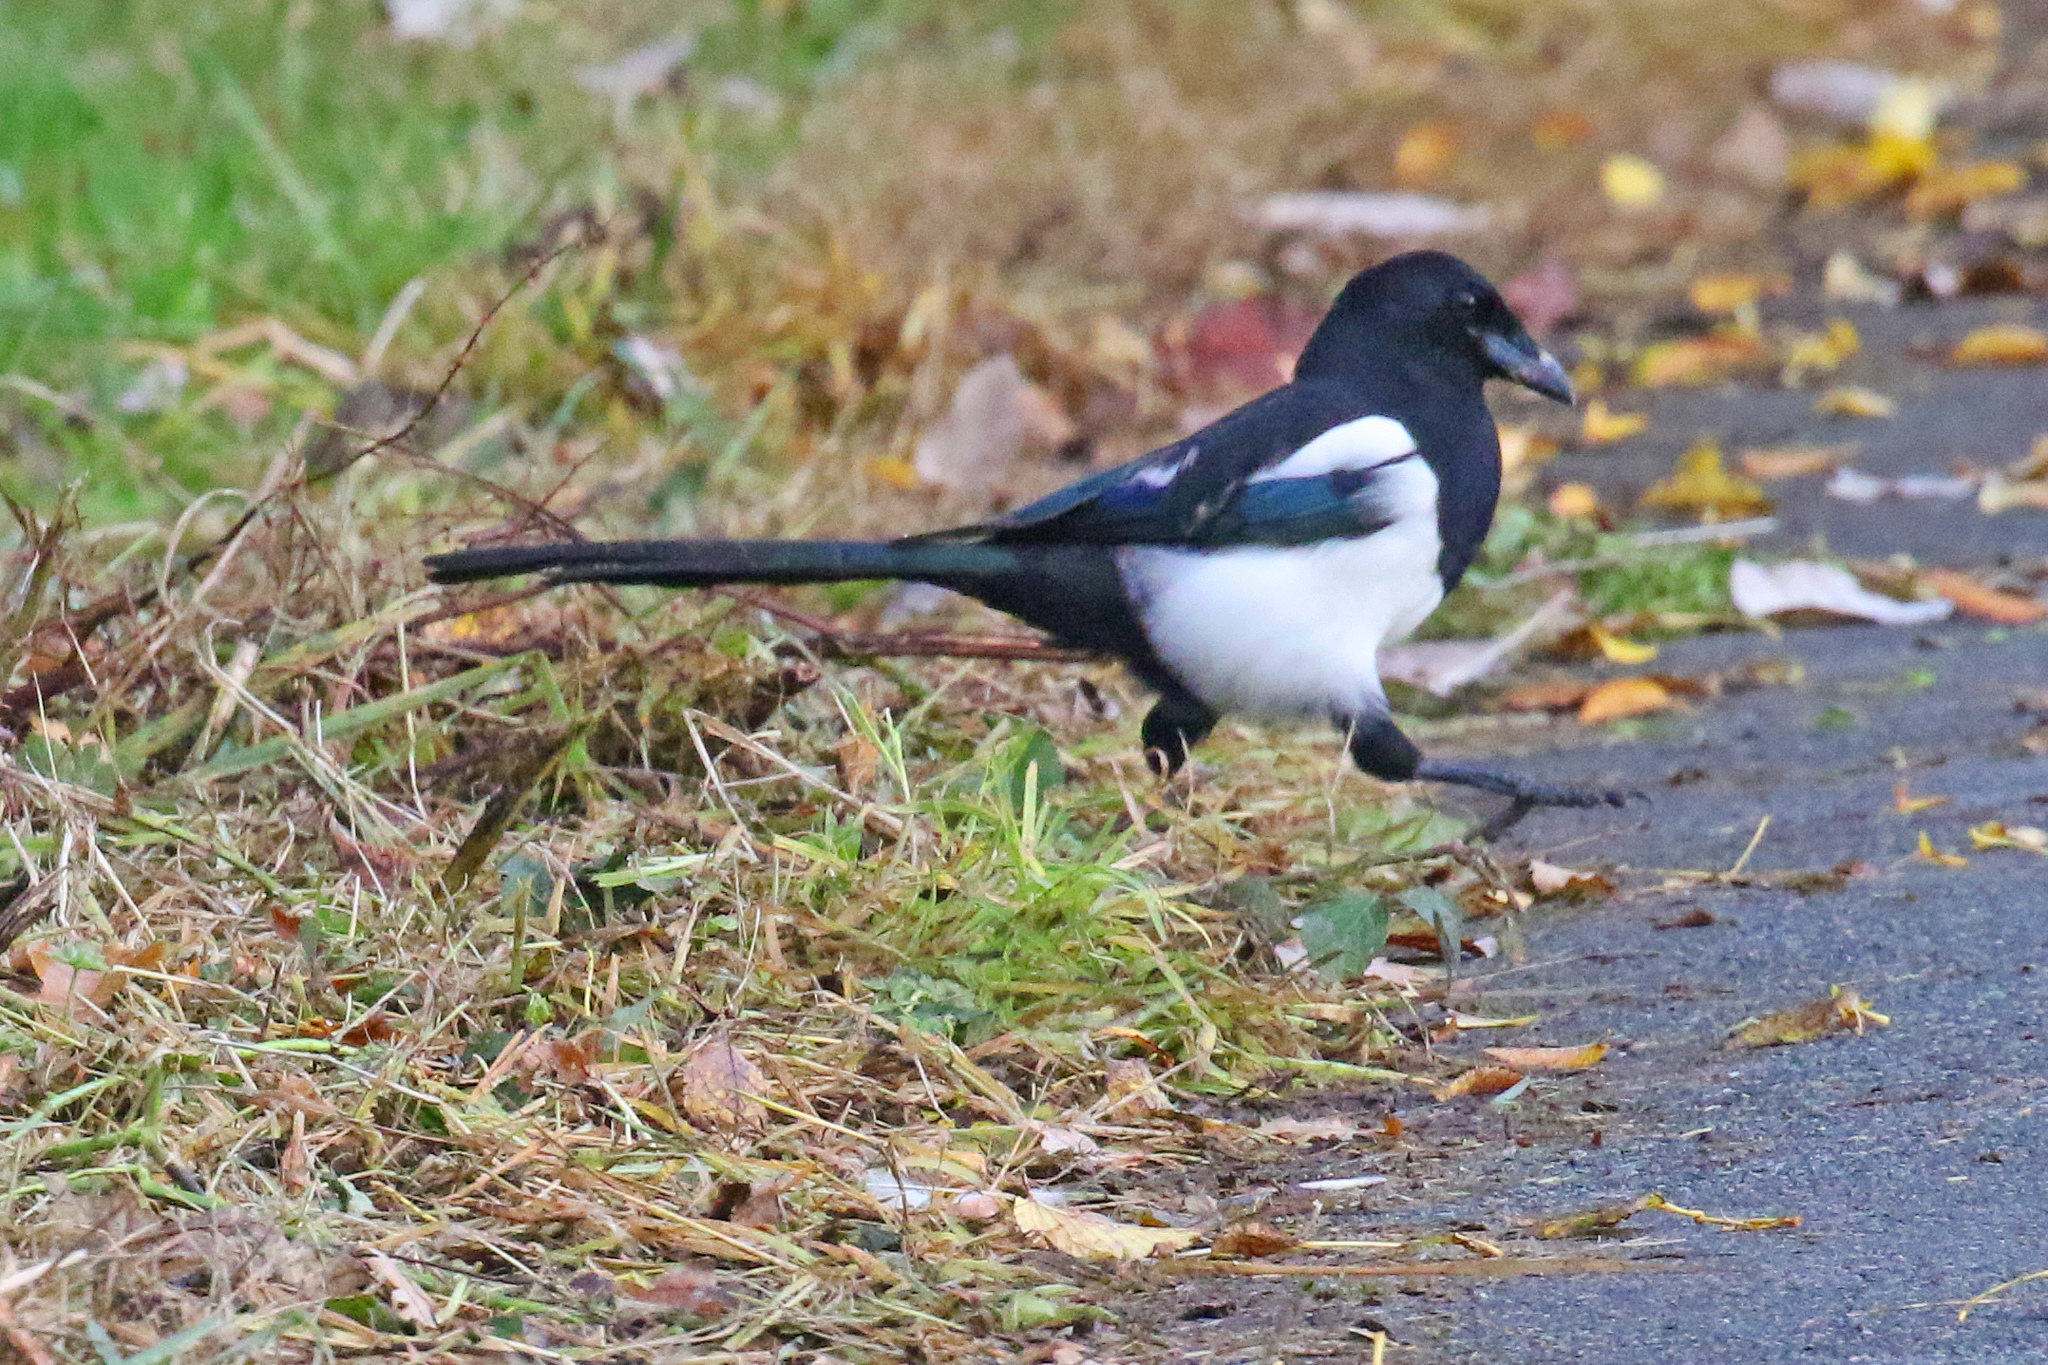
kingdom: Animalia
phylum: Chordata
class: Aves
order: Passeriformes
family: Corvidae
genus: Pica
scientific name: Pica pica
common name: Eurasian magpie
